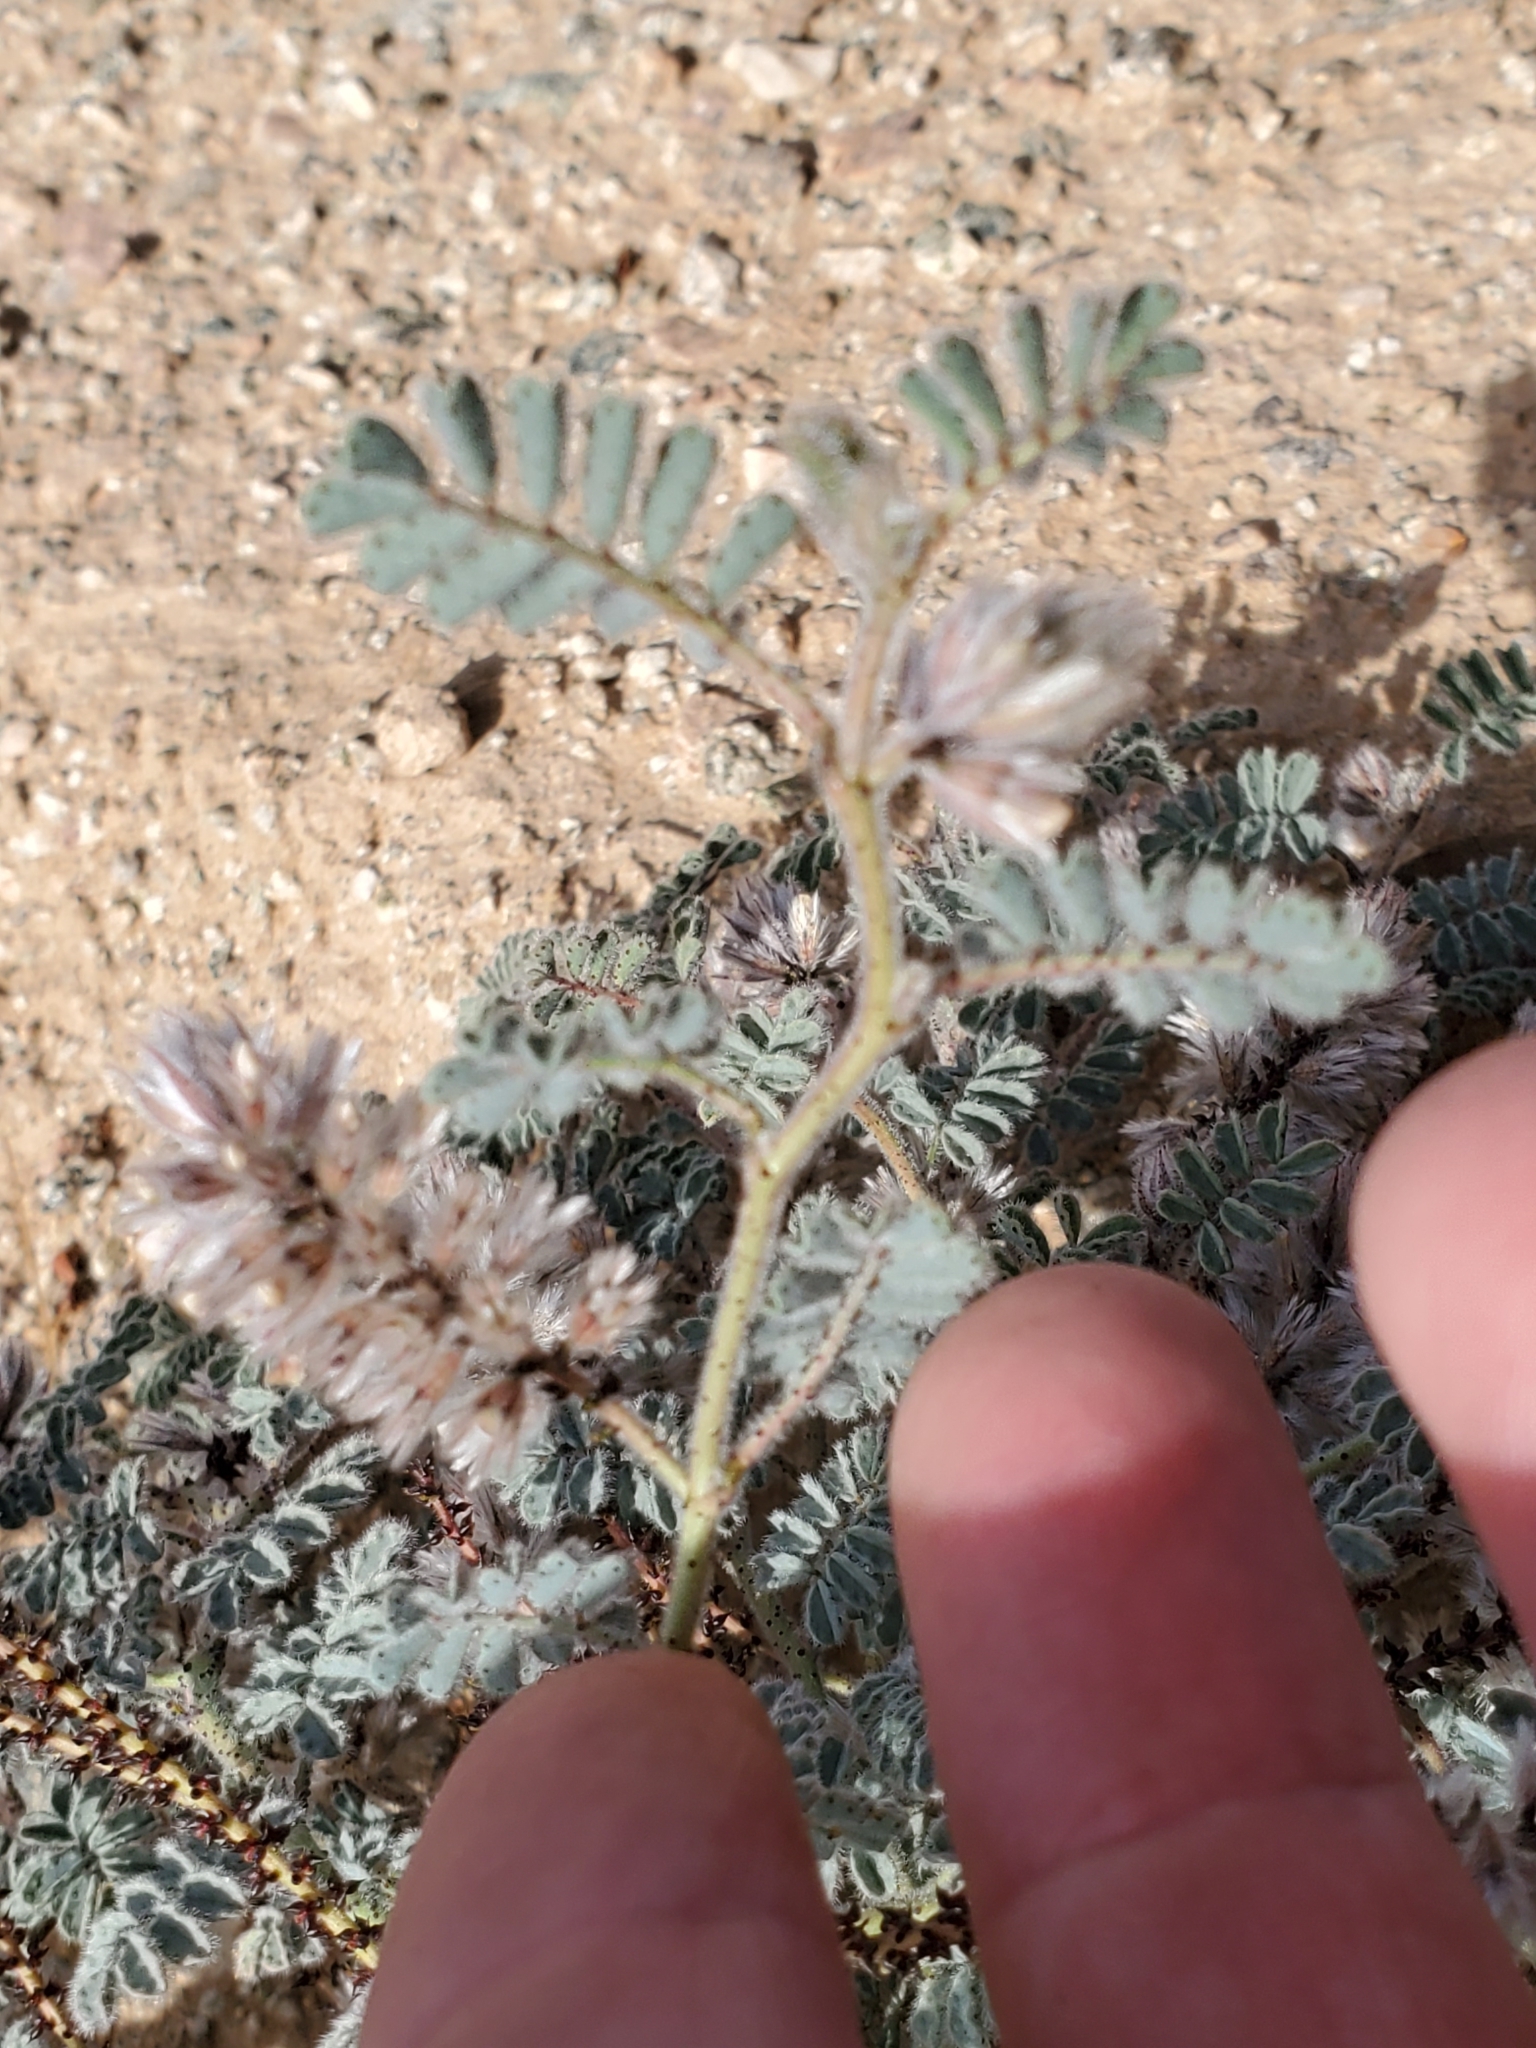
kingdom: Plantae
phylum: Tracheophyta
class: Magnoliopsida
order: Fabales
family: Fabaceae
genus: Dalea
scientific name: Dalea mollissima
